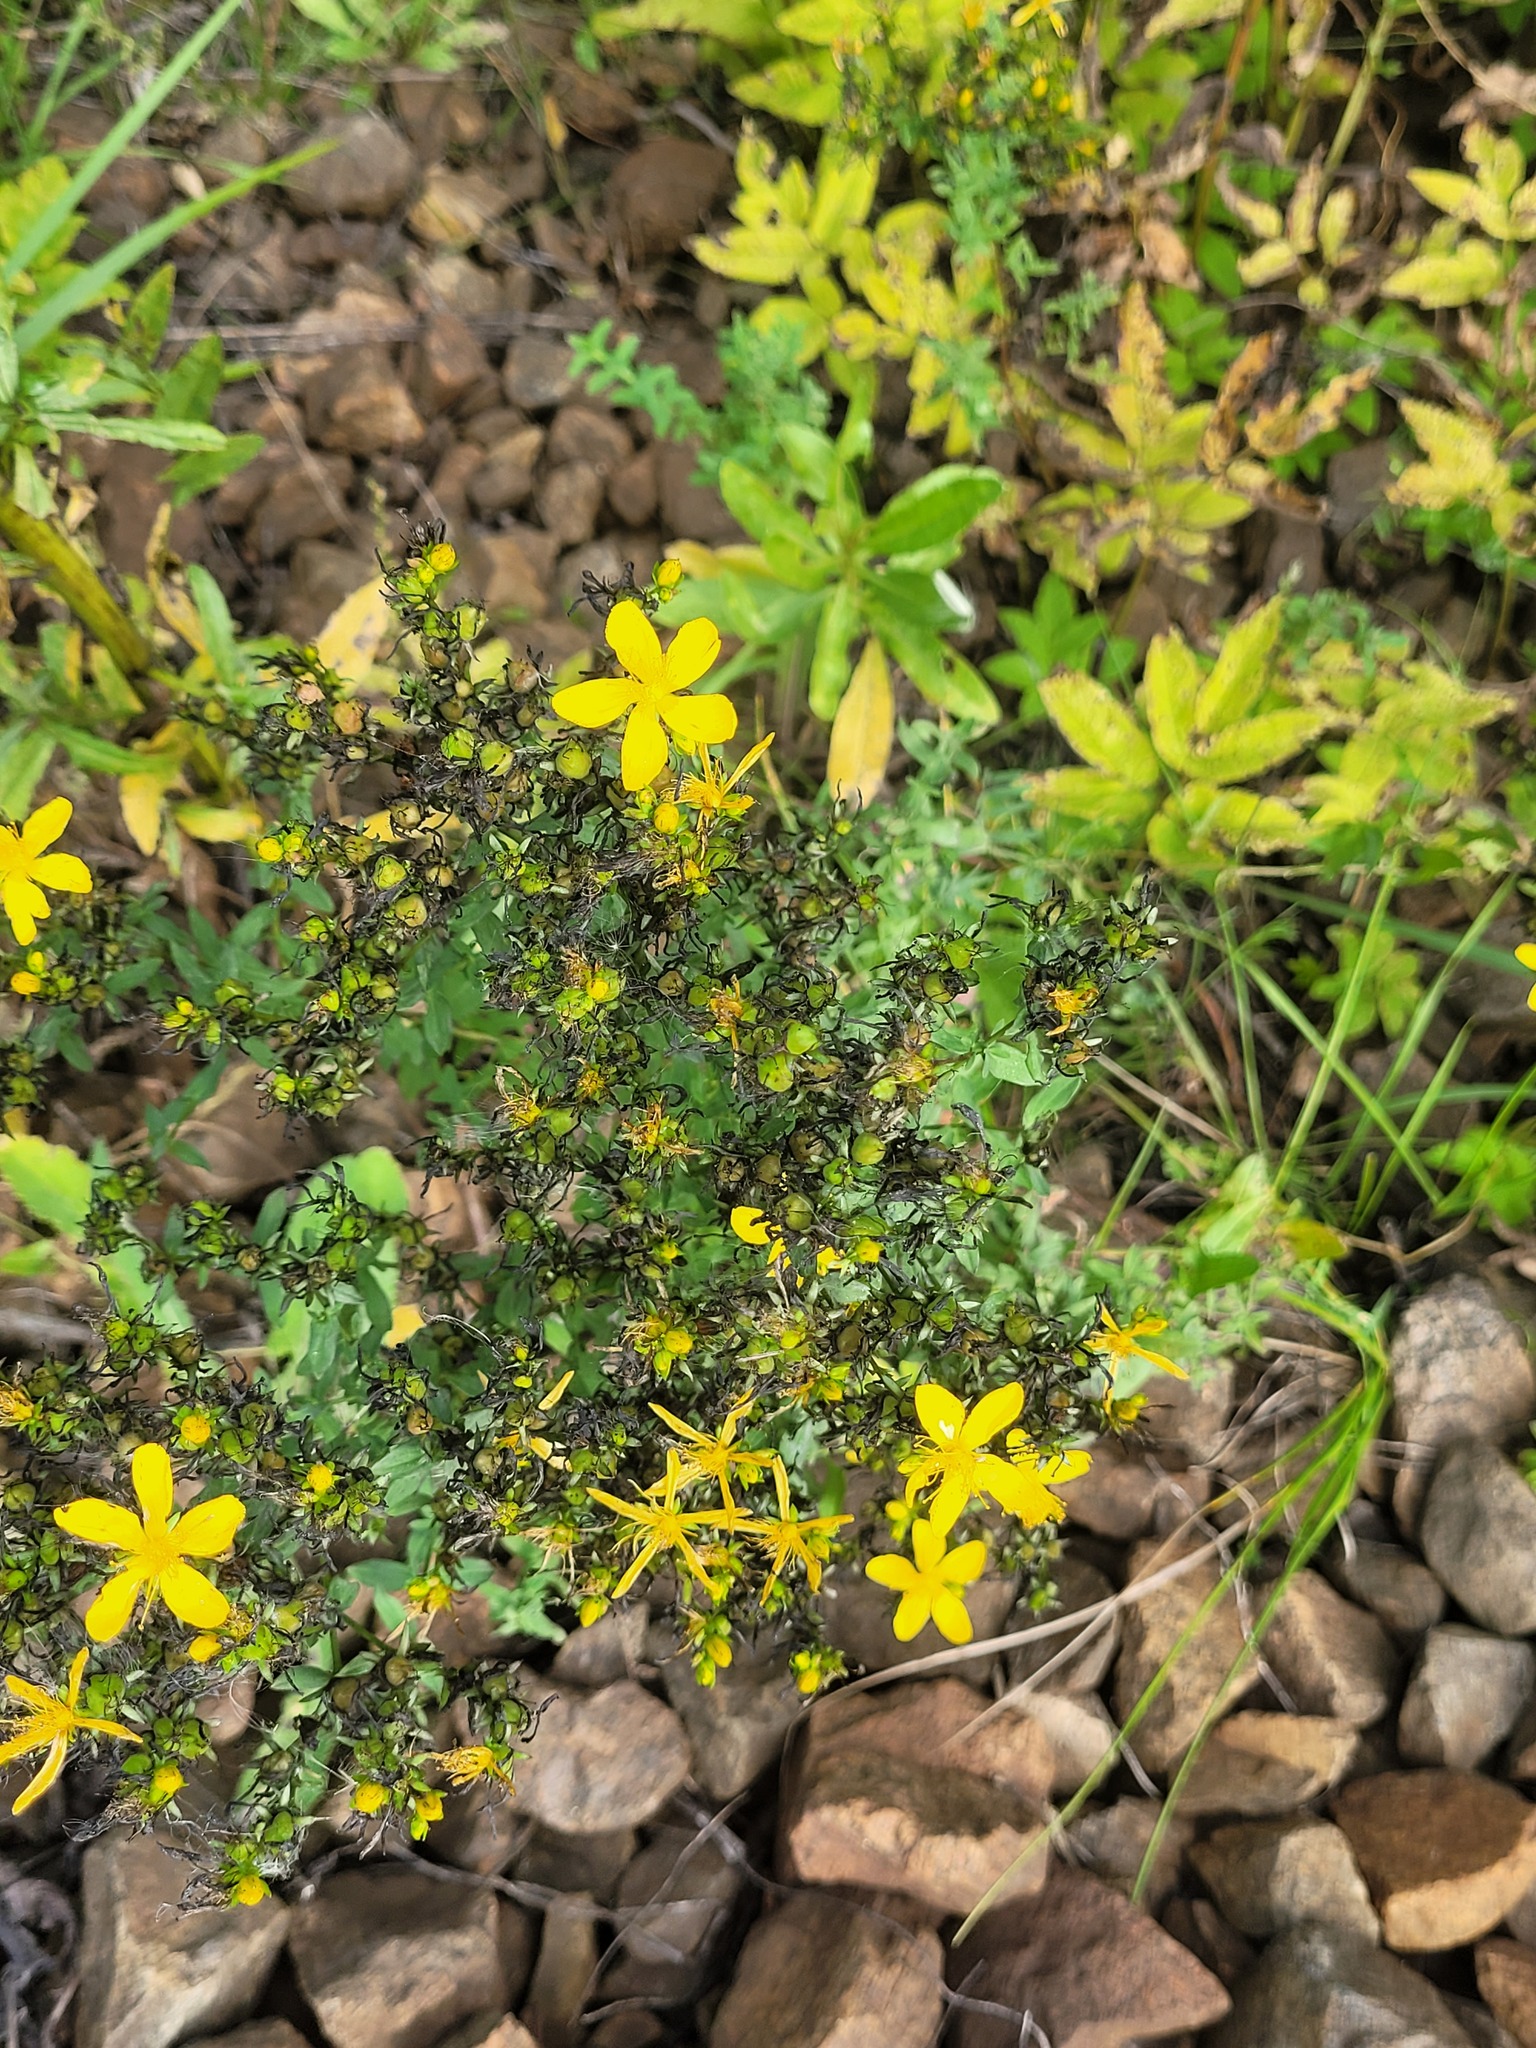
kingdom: Plantae
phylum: Tracheophyta
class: Magnoliopsida
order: Malpighiales
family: Hypericaceae
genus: Hypericum
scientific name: Hypericum perforatum
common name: Common st. johnswort
